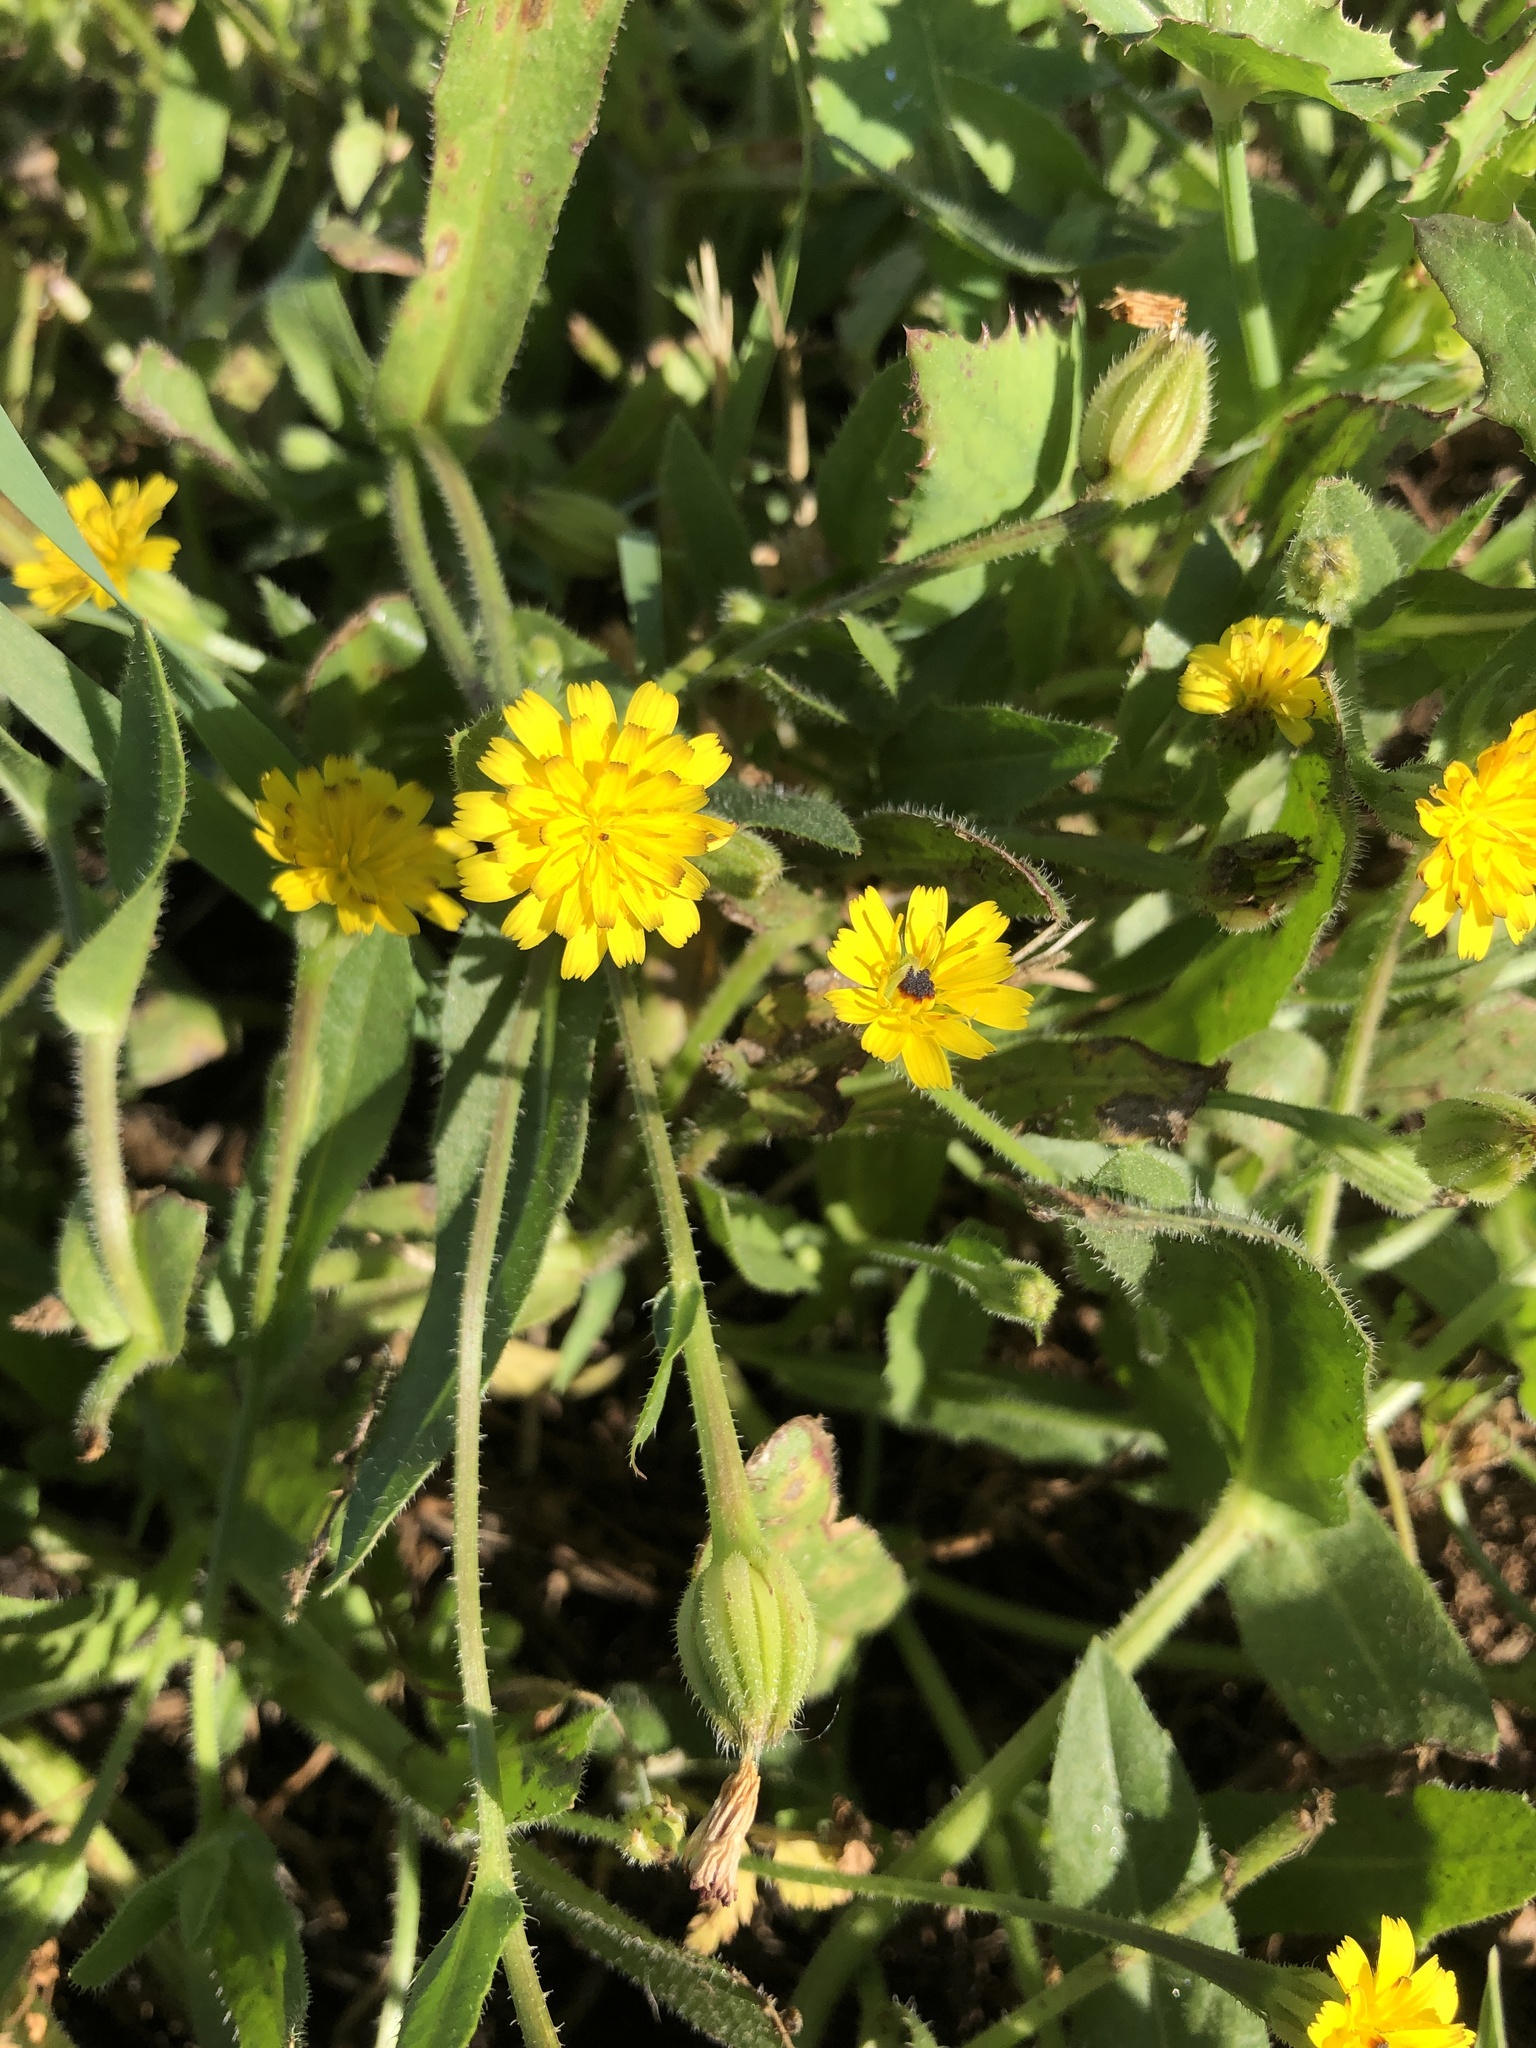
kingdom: Plantae
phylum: Tracheophyta
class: Magnoliopsida
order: Asterales
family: Asteraceae
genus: Hedypnois
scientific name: Hedypnois rhagadioloides
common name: Cretan weed
